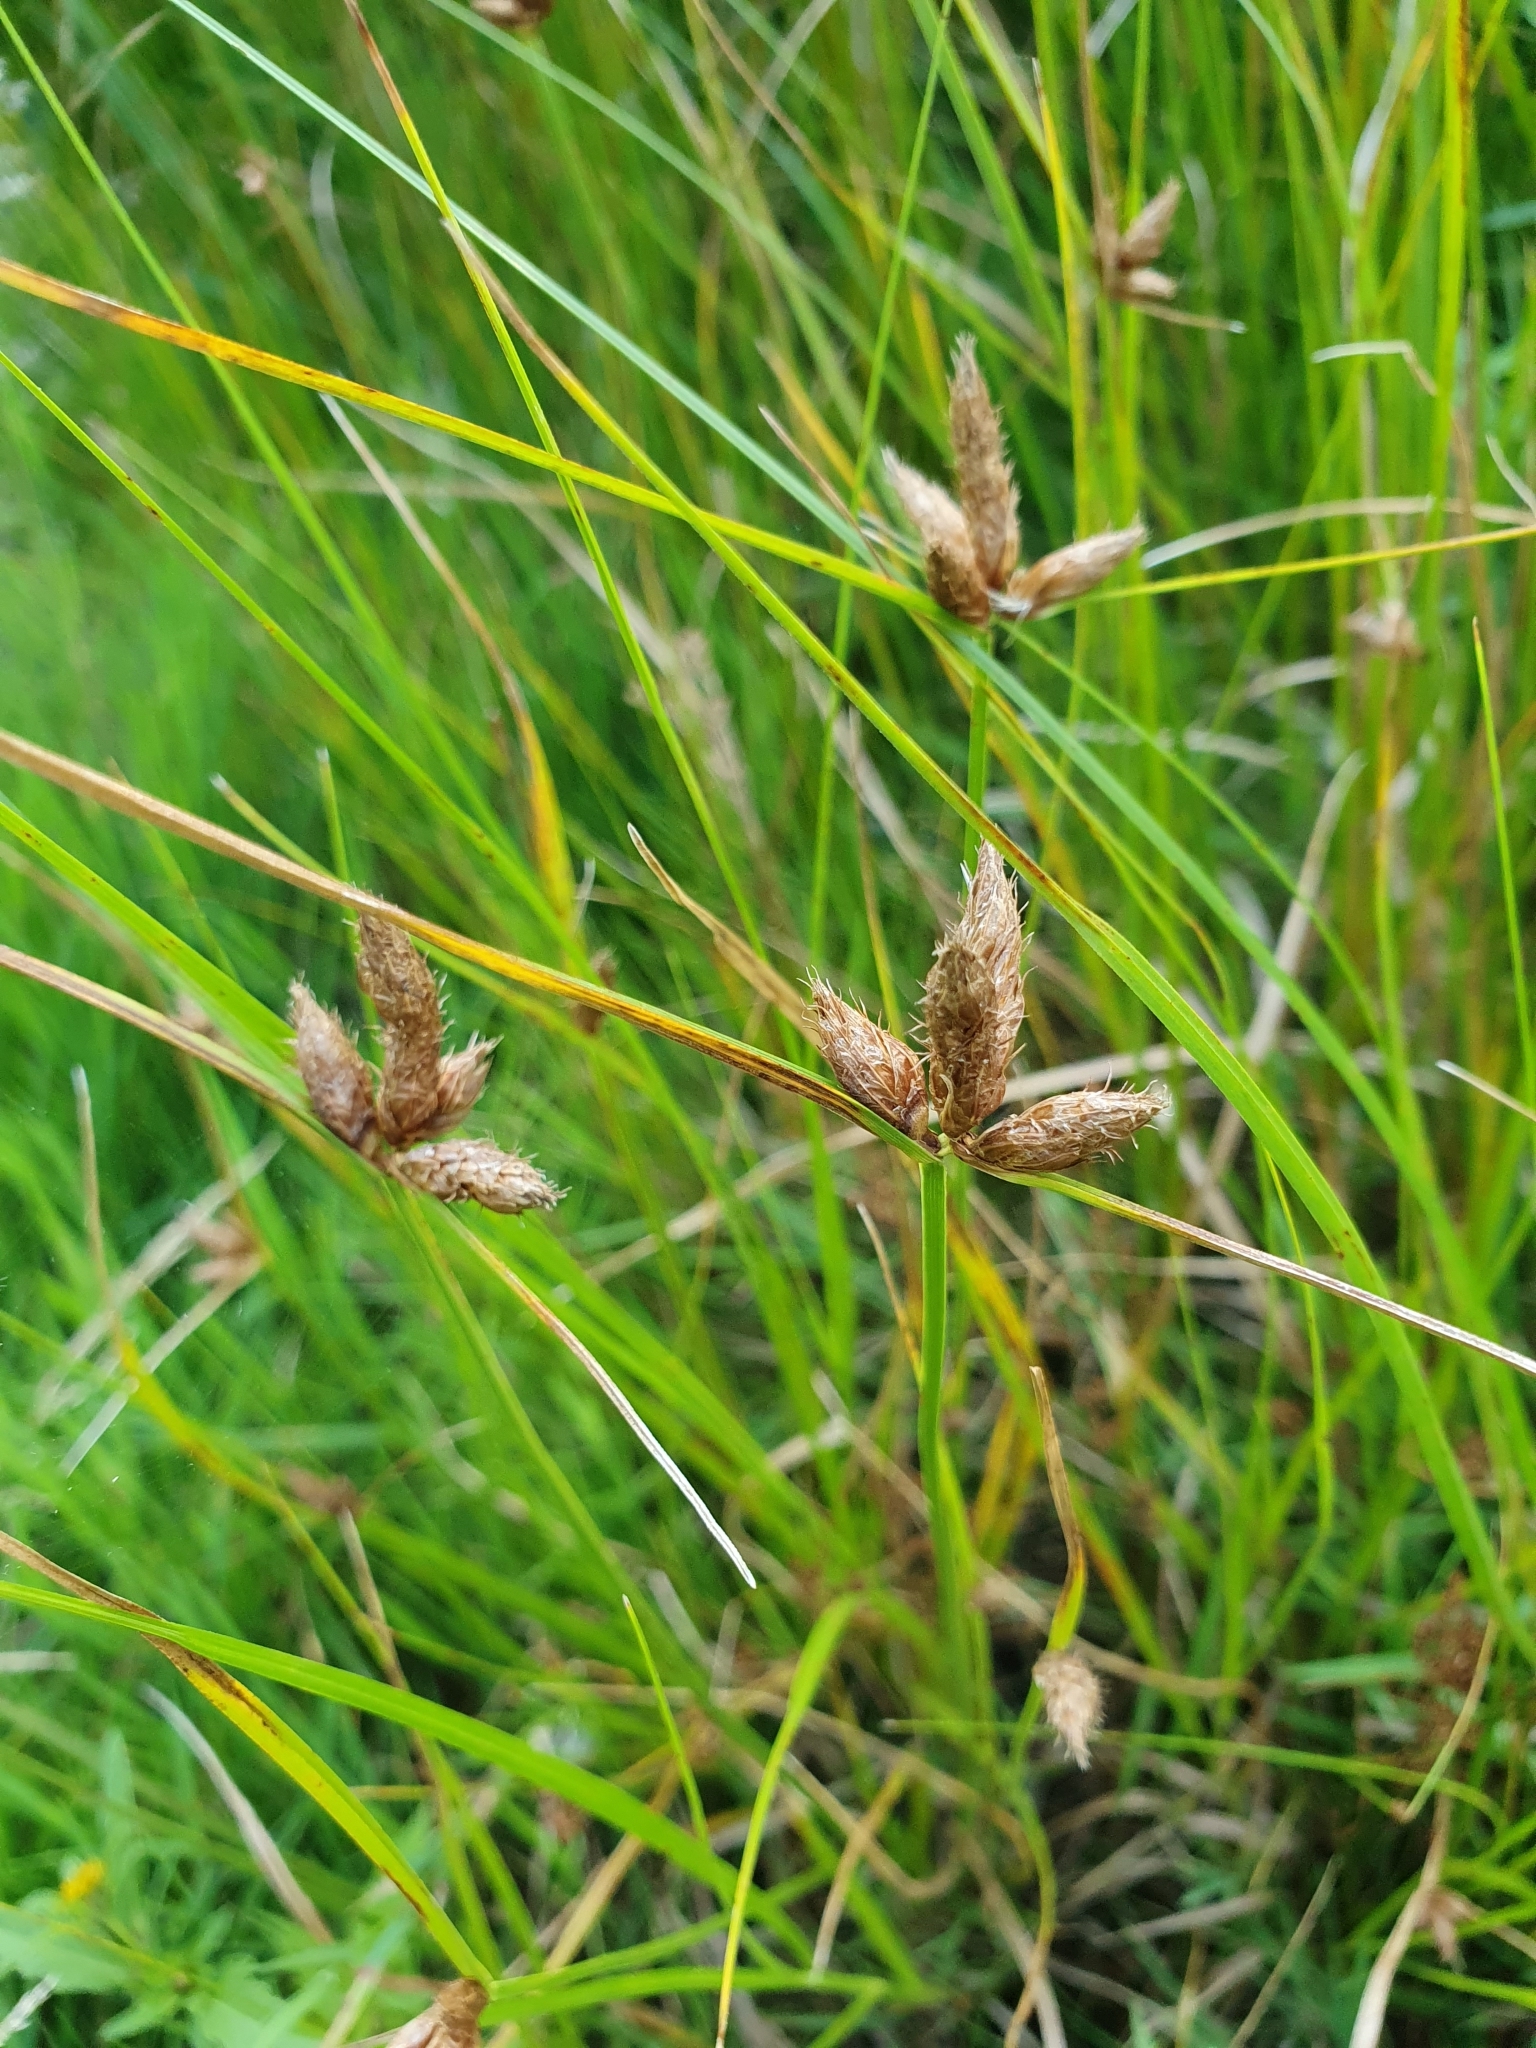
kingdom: Plantae
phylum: Tracheophyta
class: Liliopsida
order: Poales
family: Cyperaceae
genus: Bolboschoenus
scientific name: Bolboschoenus maritimus
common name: Sea club-rush
